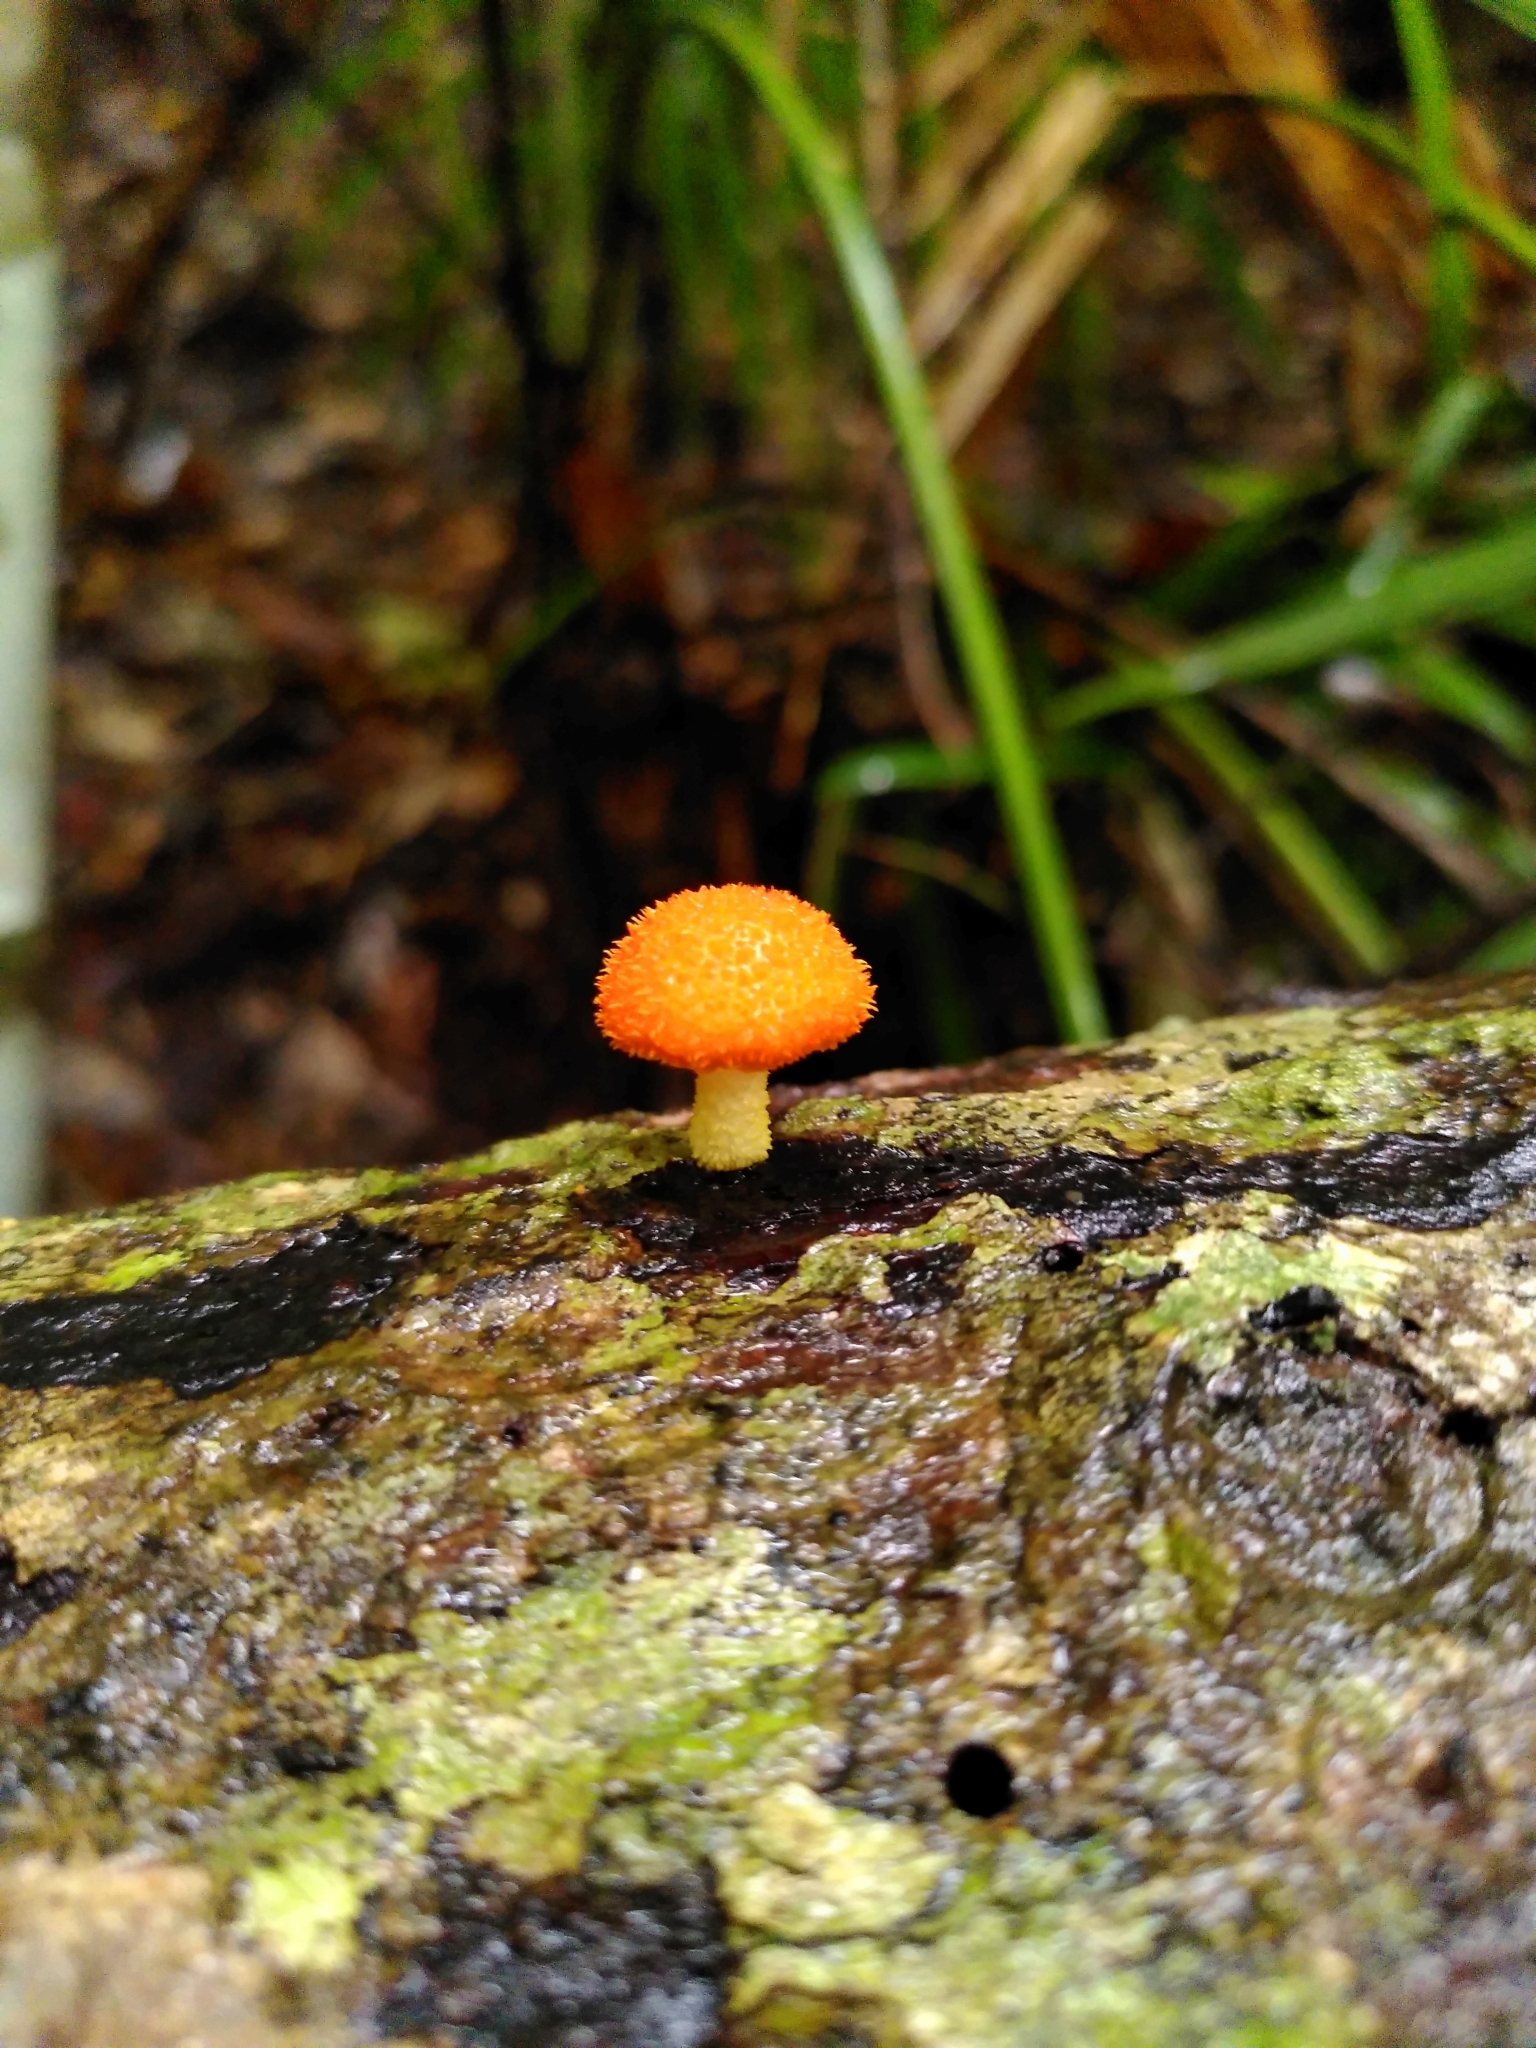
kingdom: Fungi
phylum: Basidiomycota
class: Agaricomycetes
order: Agaricales
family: Physalacriaceae
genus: Cyptotrama
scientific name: Cyptotrama asprata
